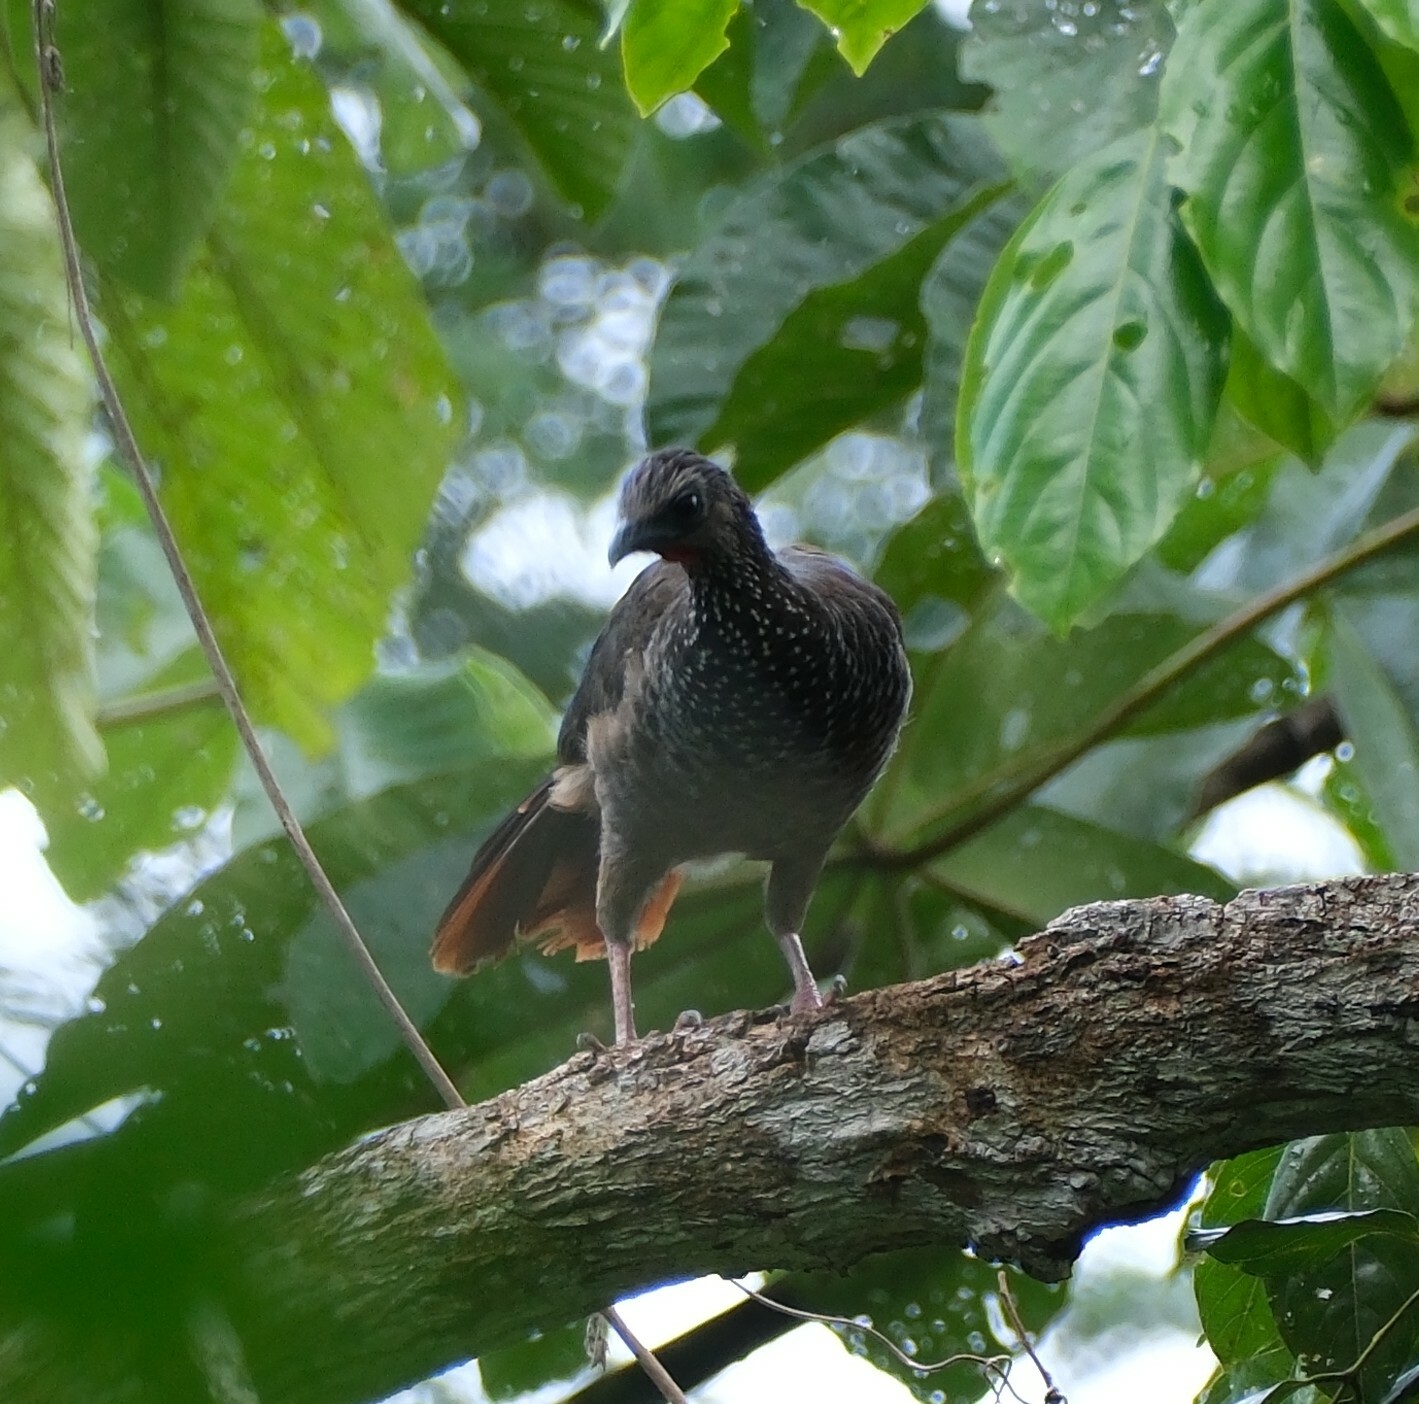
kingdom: Animalia
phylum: Chordata
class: Aves
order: Galliformes
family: Cracidae
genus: Ortalis
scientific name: Ortalis guttata
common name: Speckled chachalaca
